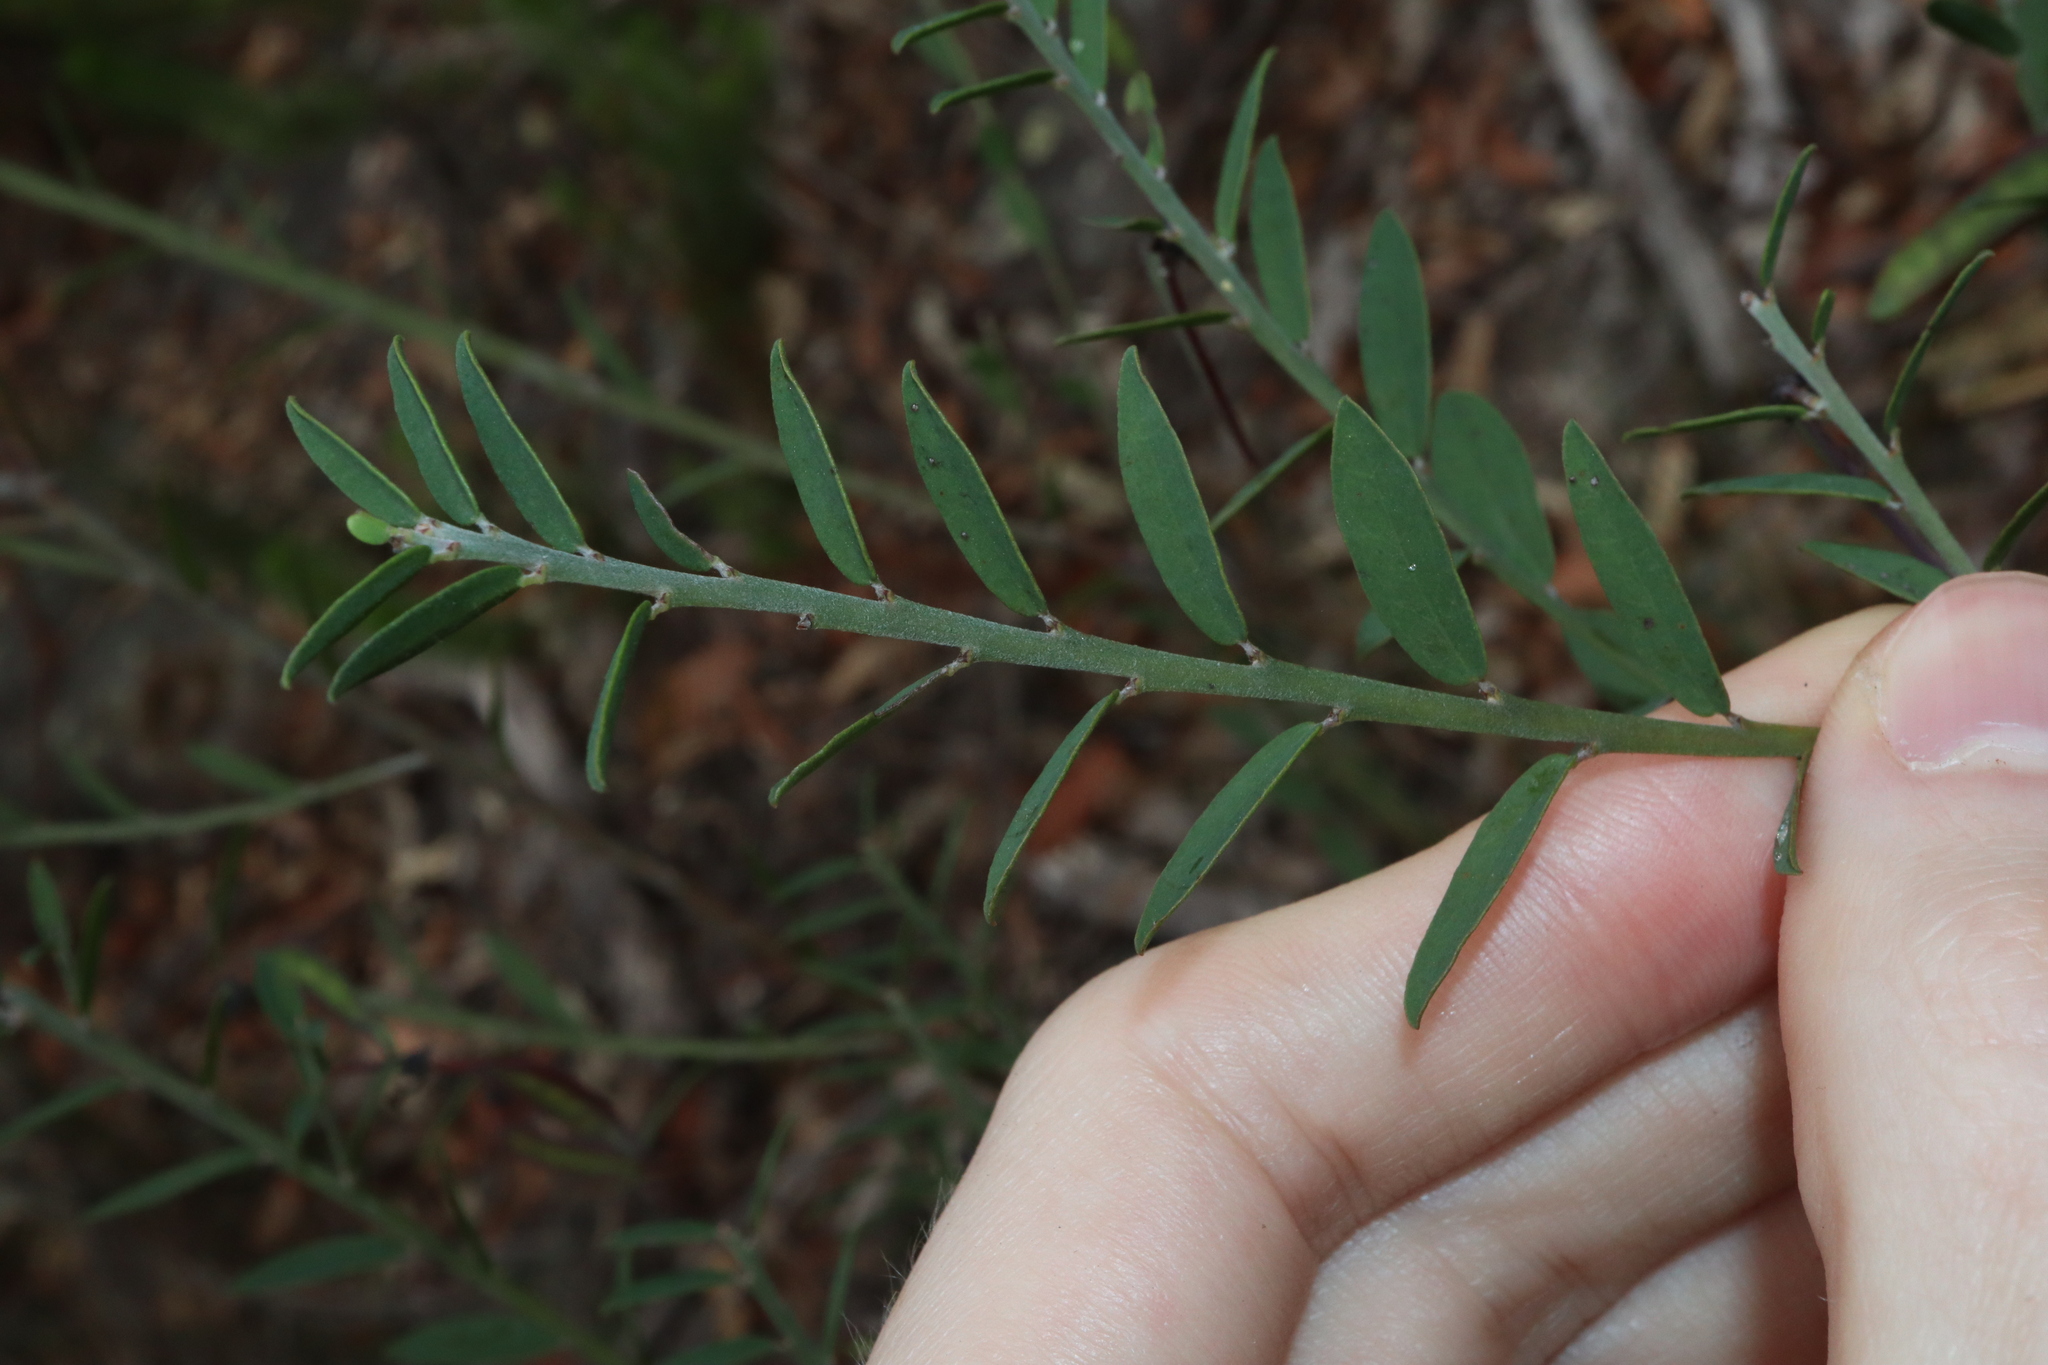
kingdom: Plantae
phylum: Tracheophyta
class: Magnoliopsida
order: Fabales
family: Fabaceae
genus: Bossiaea
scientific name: Bossiaea heterophylla
